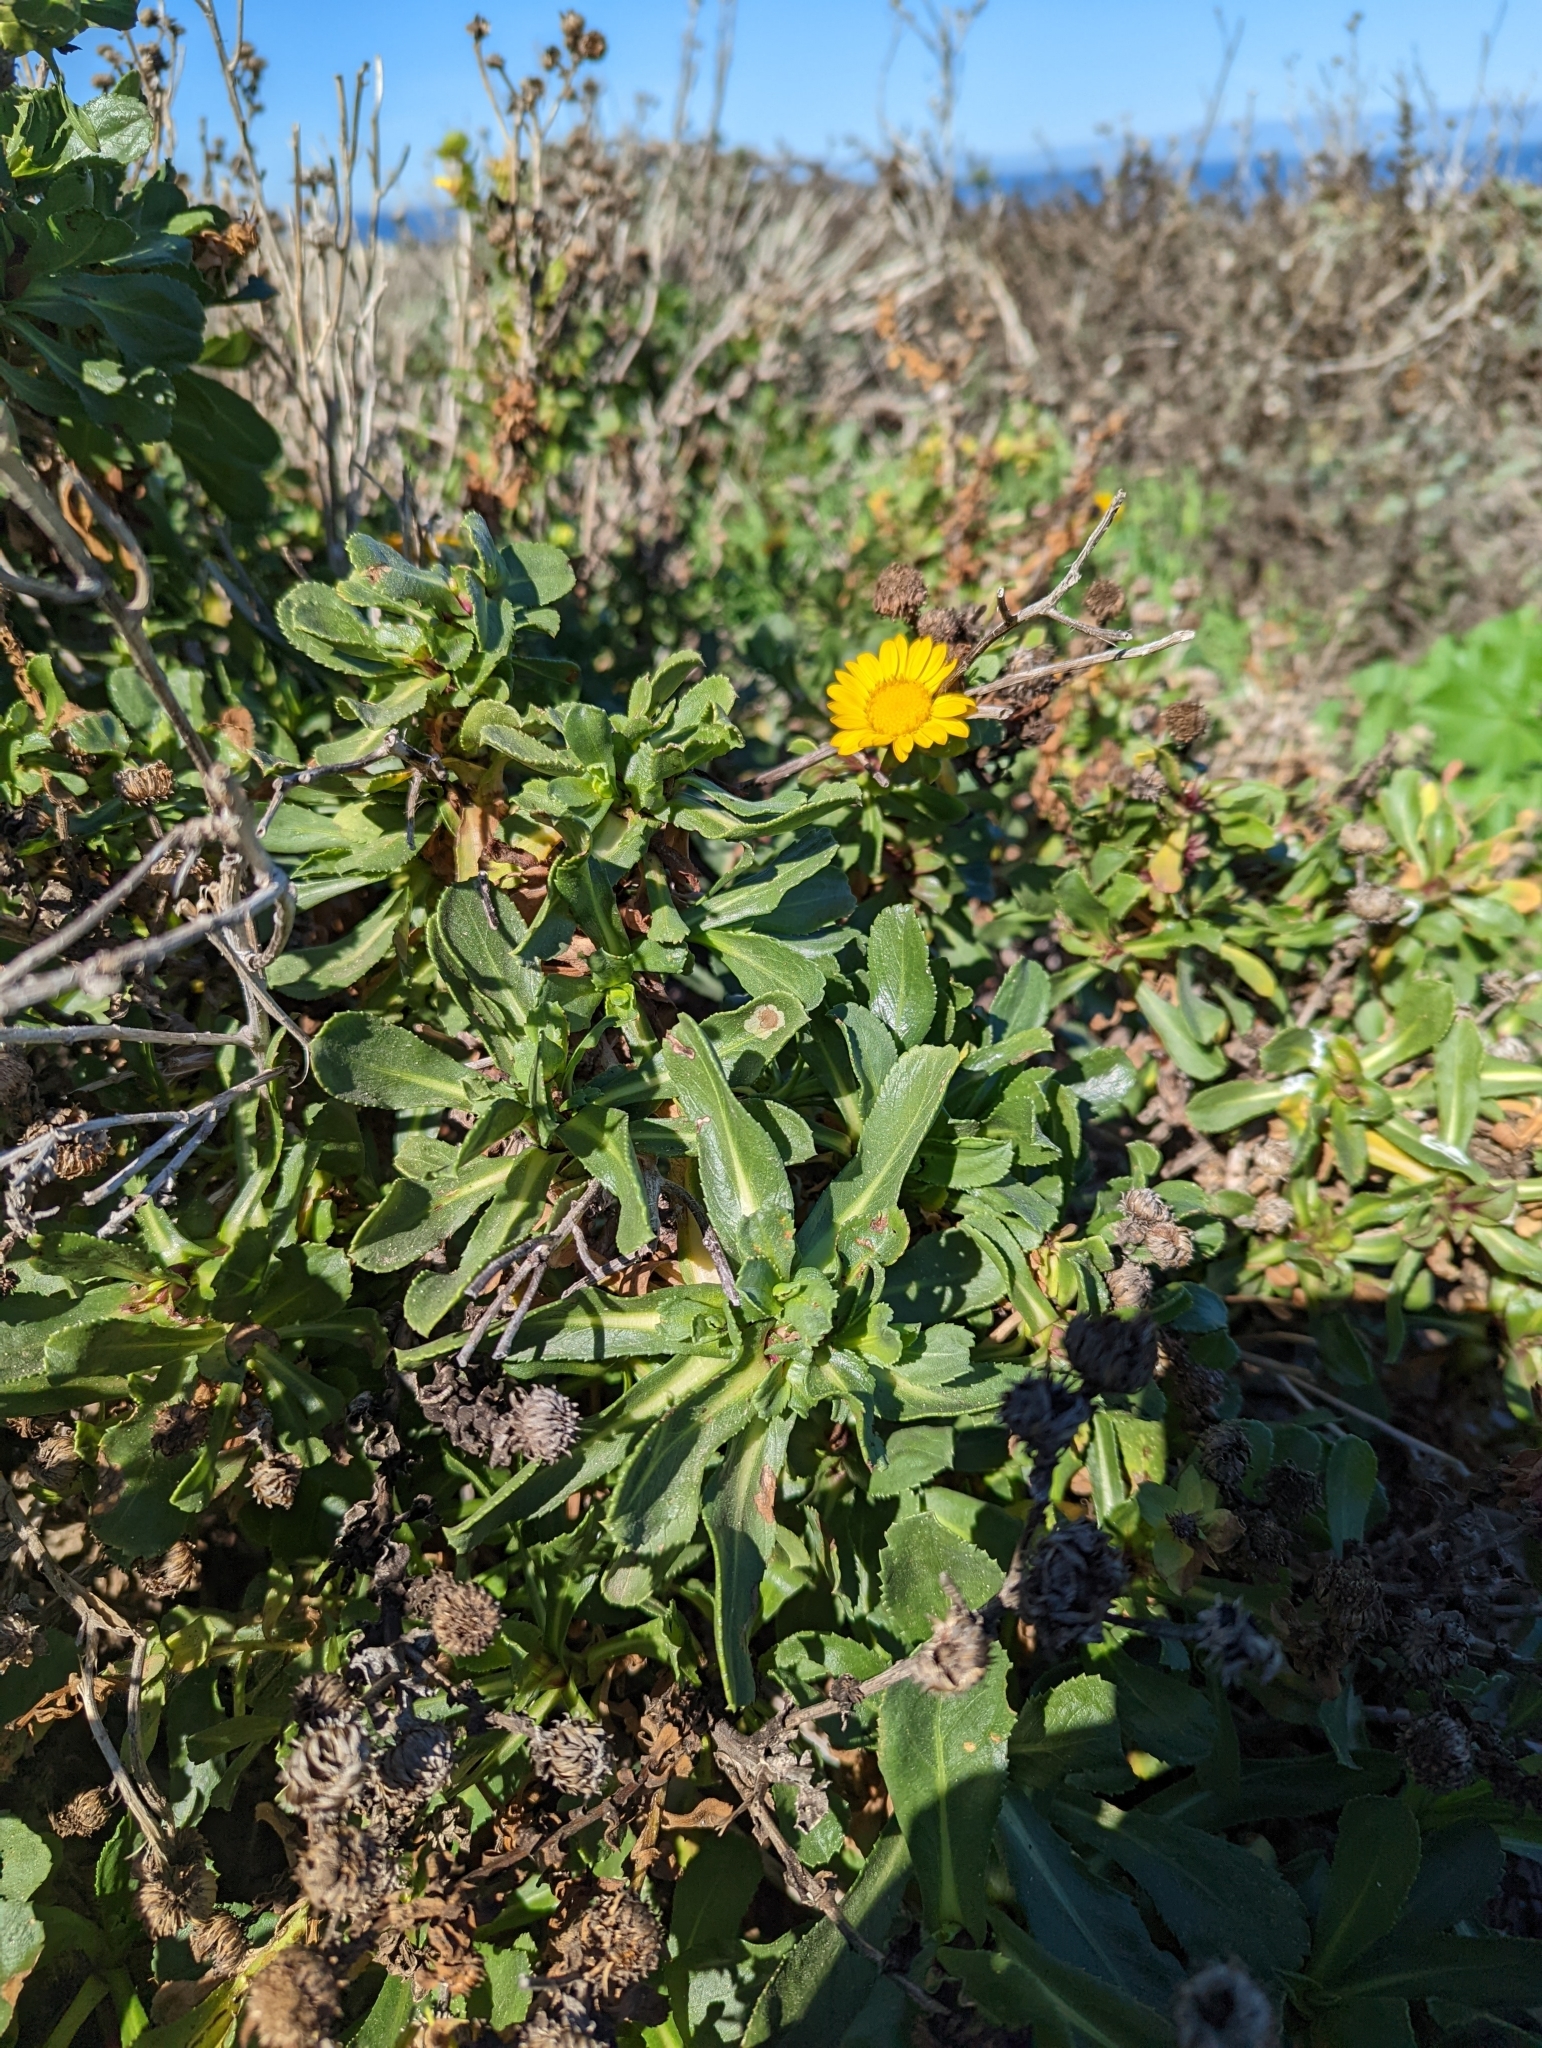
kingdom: Plantae
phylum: Tracheophyta
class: Magnoliopsida
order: Asterales
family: Asteraceae
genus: Grindelia
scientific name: Grindelia hirsutula
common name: Hairy gumweed
